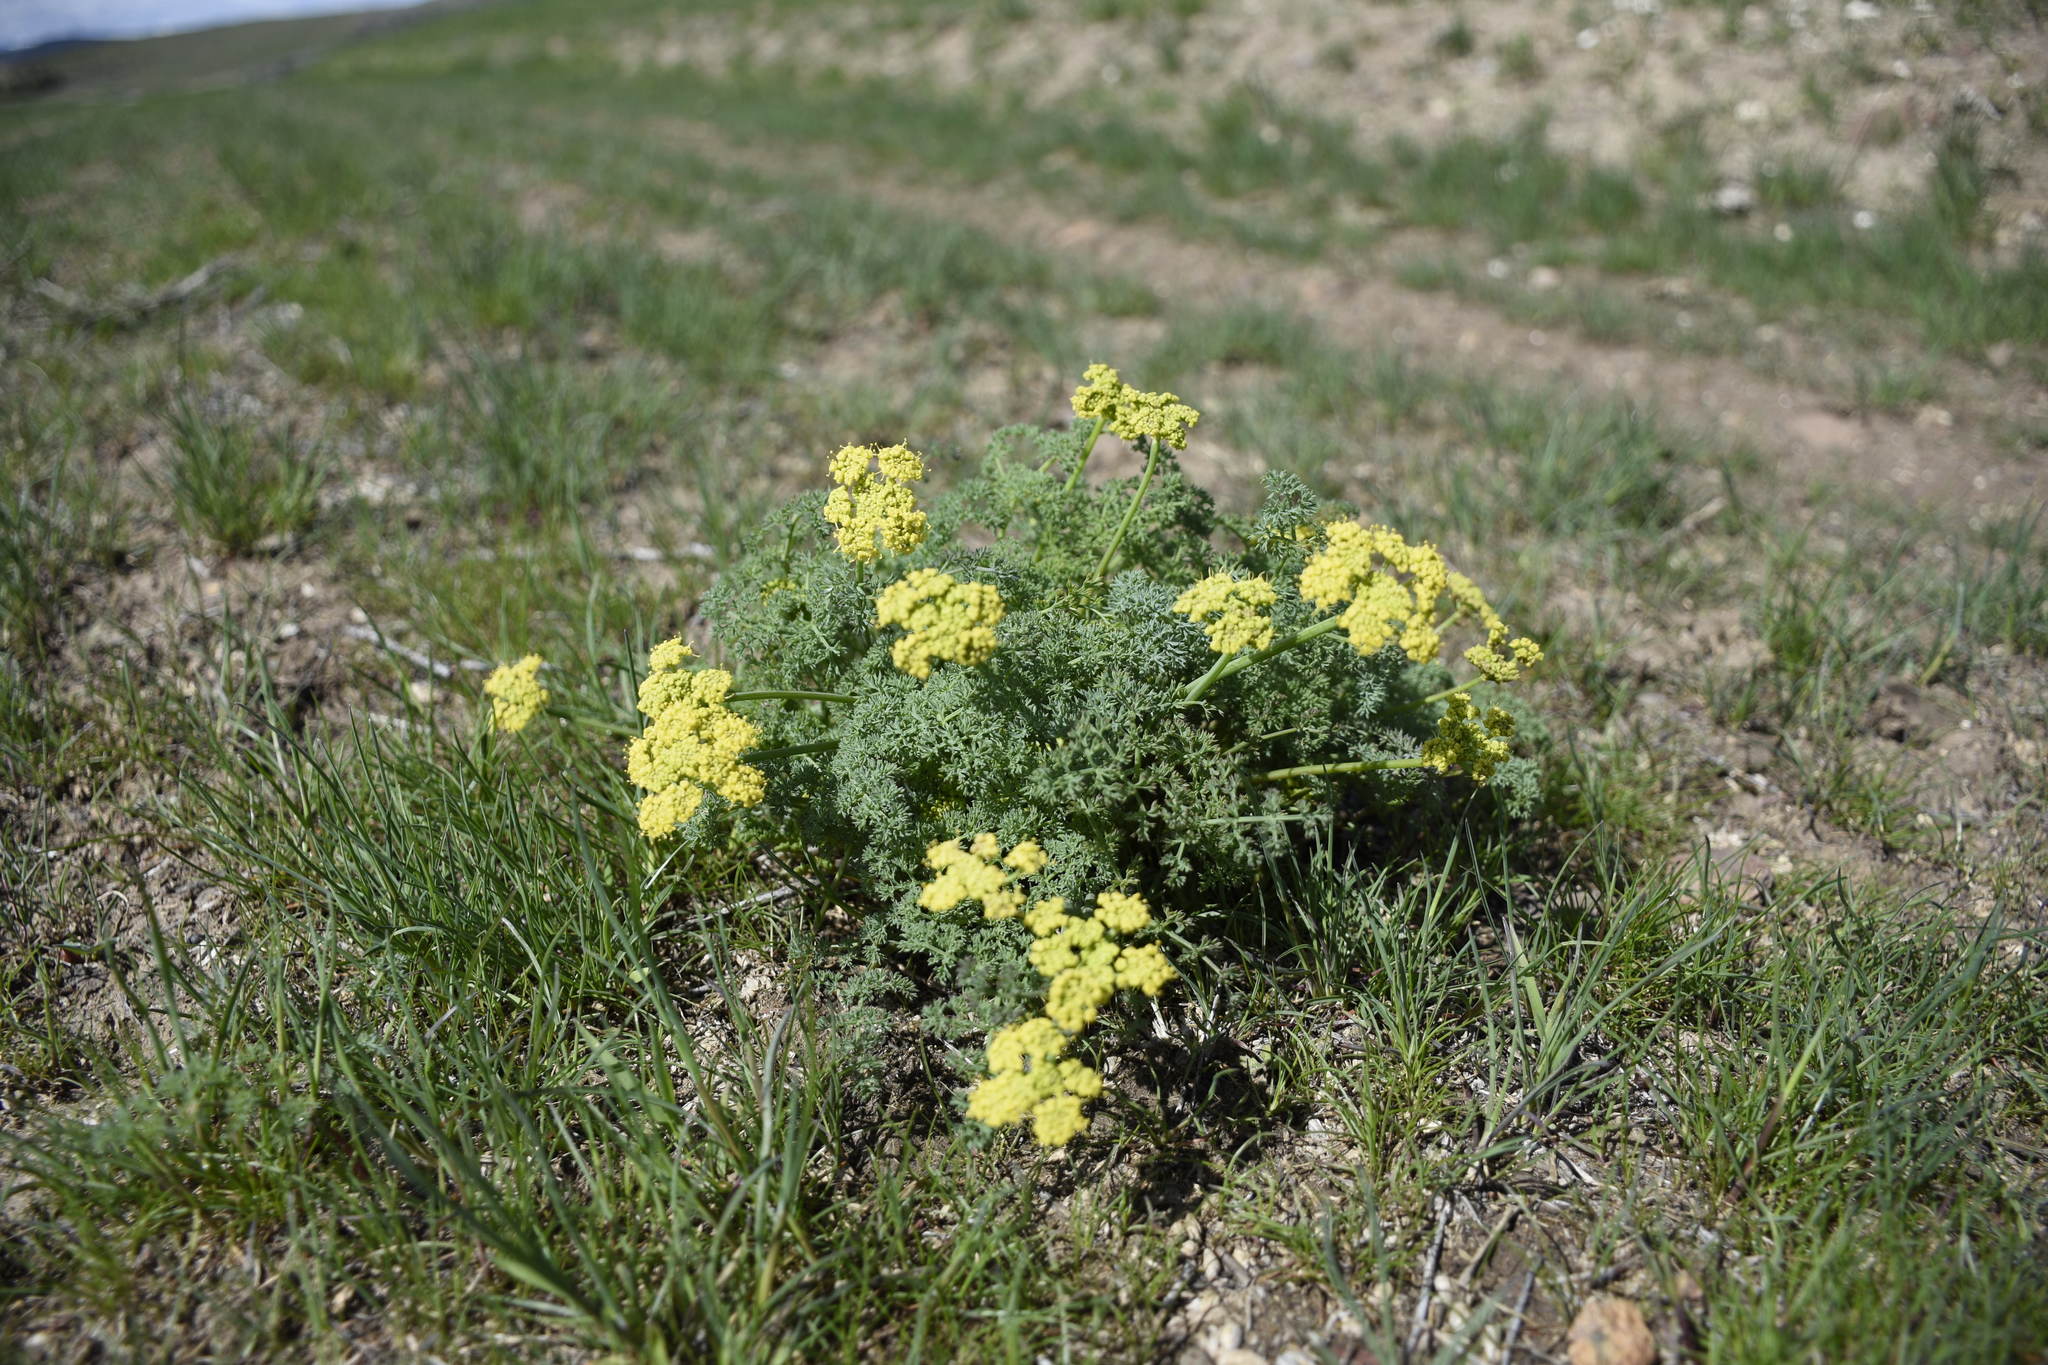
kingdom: Plantae
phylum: Tracheophyta
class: Magnoliopsida
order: Apiales
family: Apiaceae
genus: Lomatium
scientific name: Lomatium papilioniferum
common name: Butterfly lomatium
